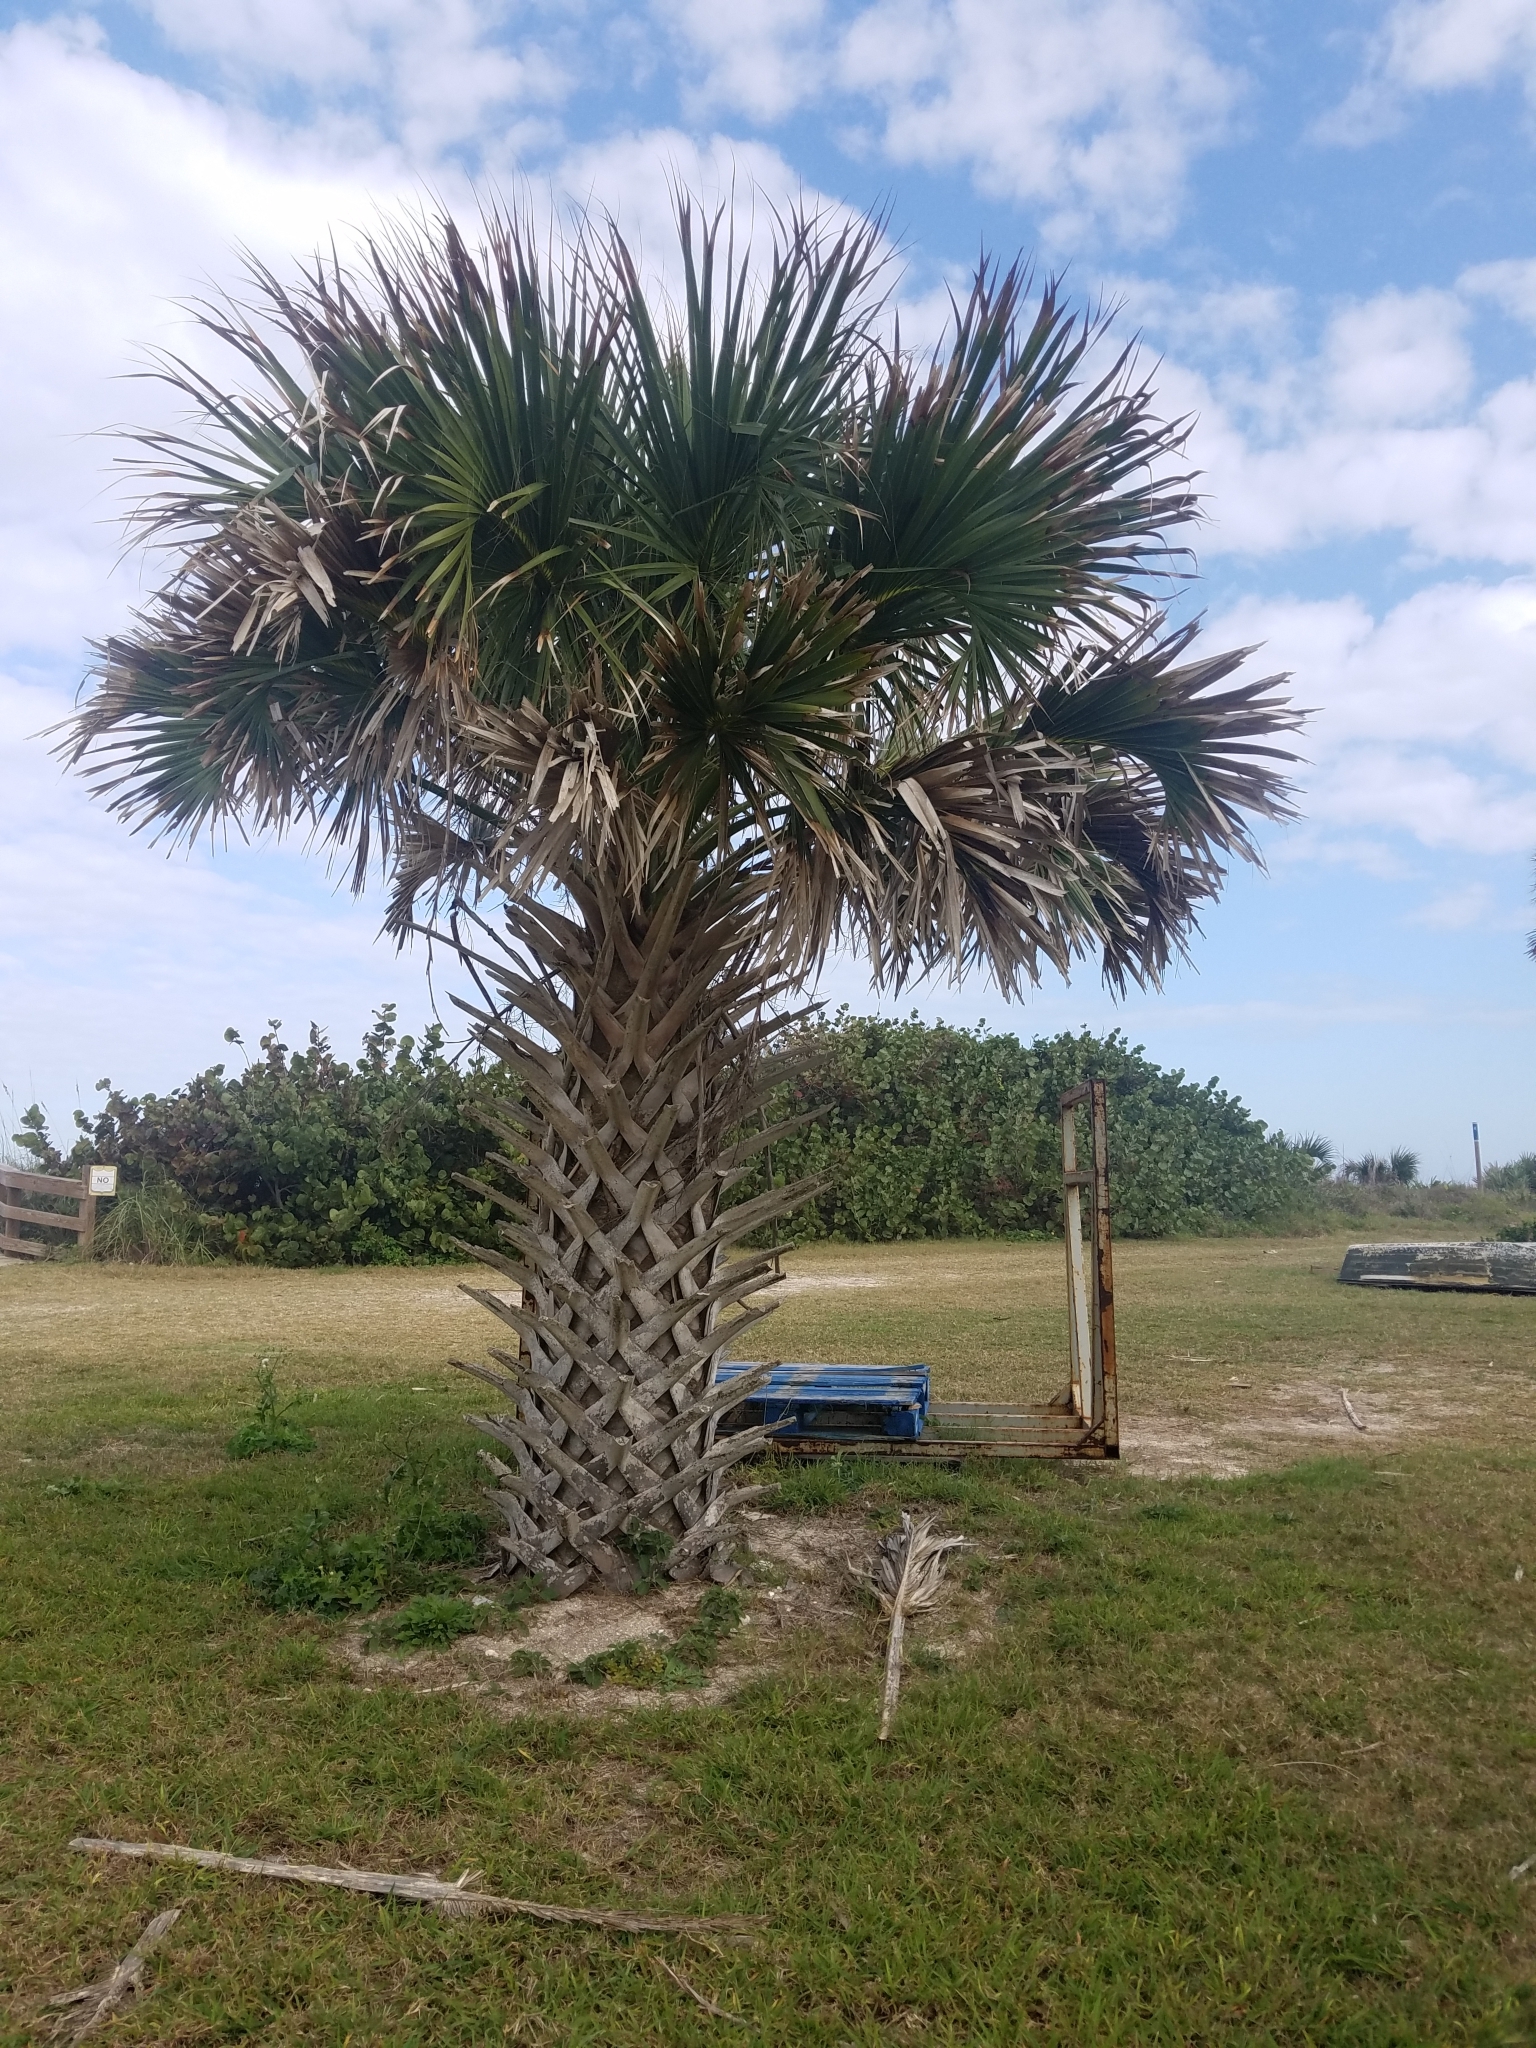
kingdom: Plantae
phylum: Tracheophyta
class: Liliopsida
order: Arecales
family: Arecaceae
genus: Sabal
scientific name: Sabal palmetto
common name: Blue palmetto
